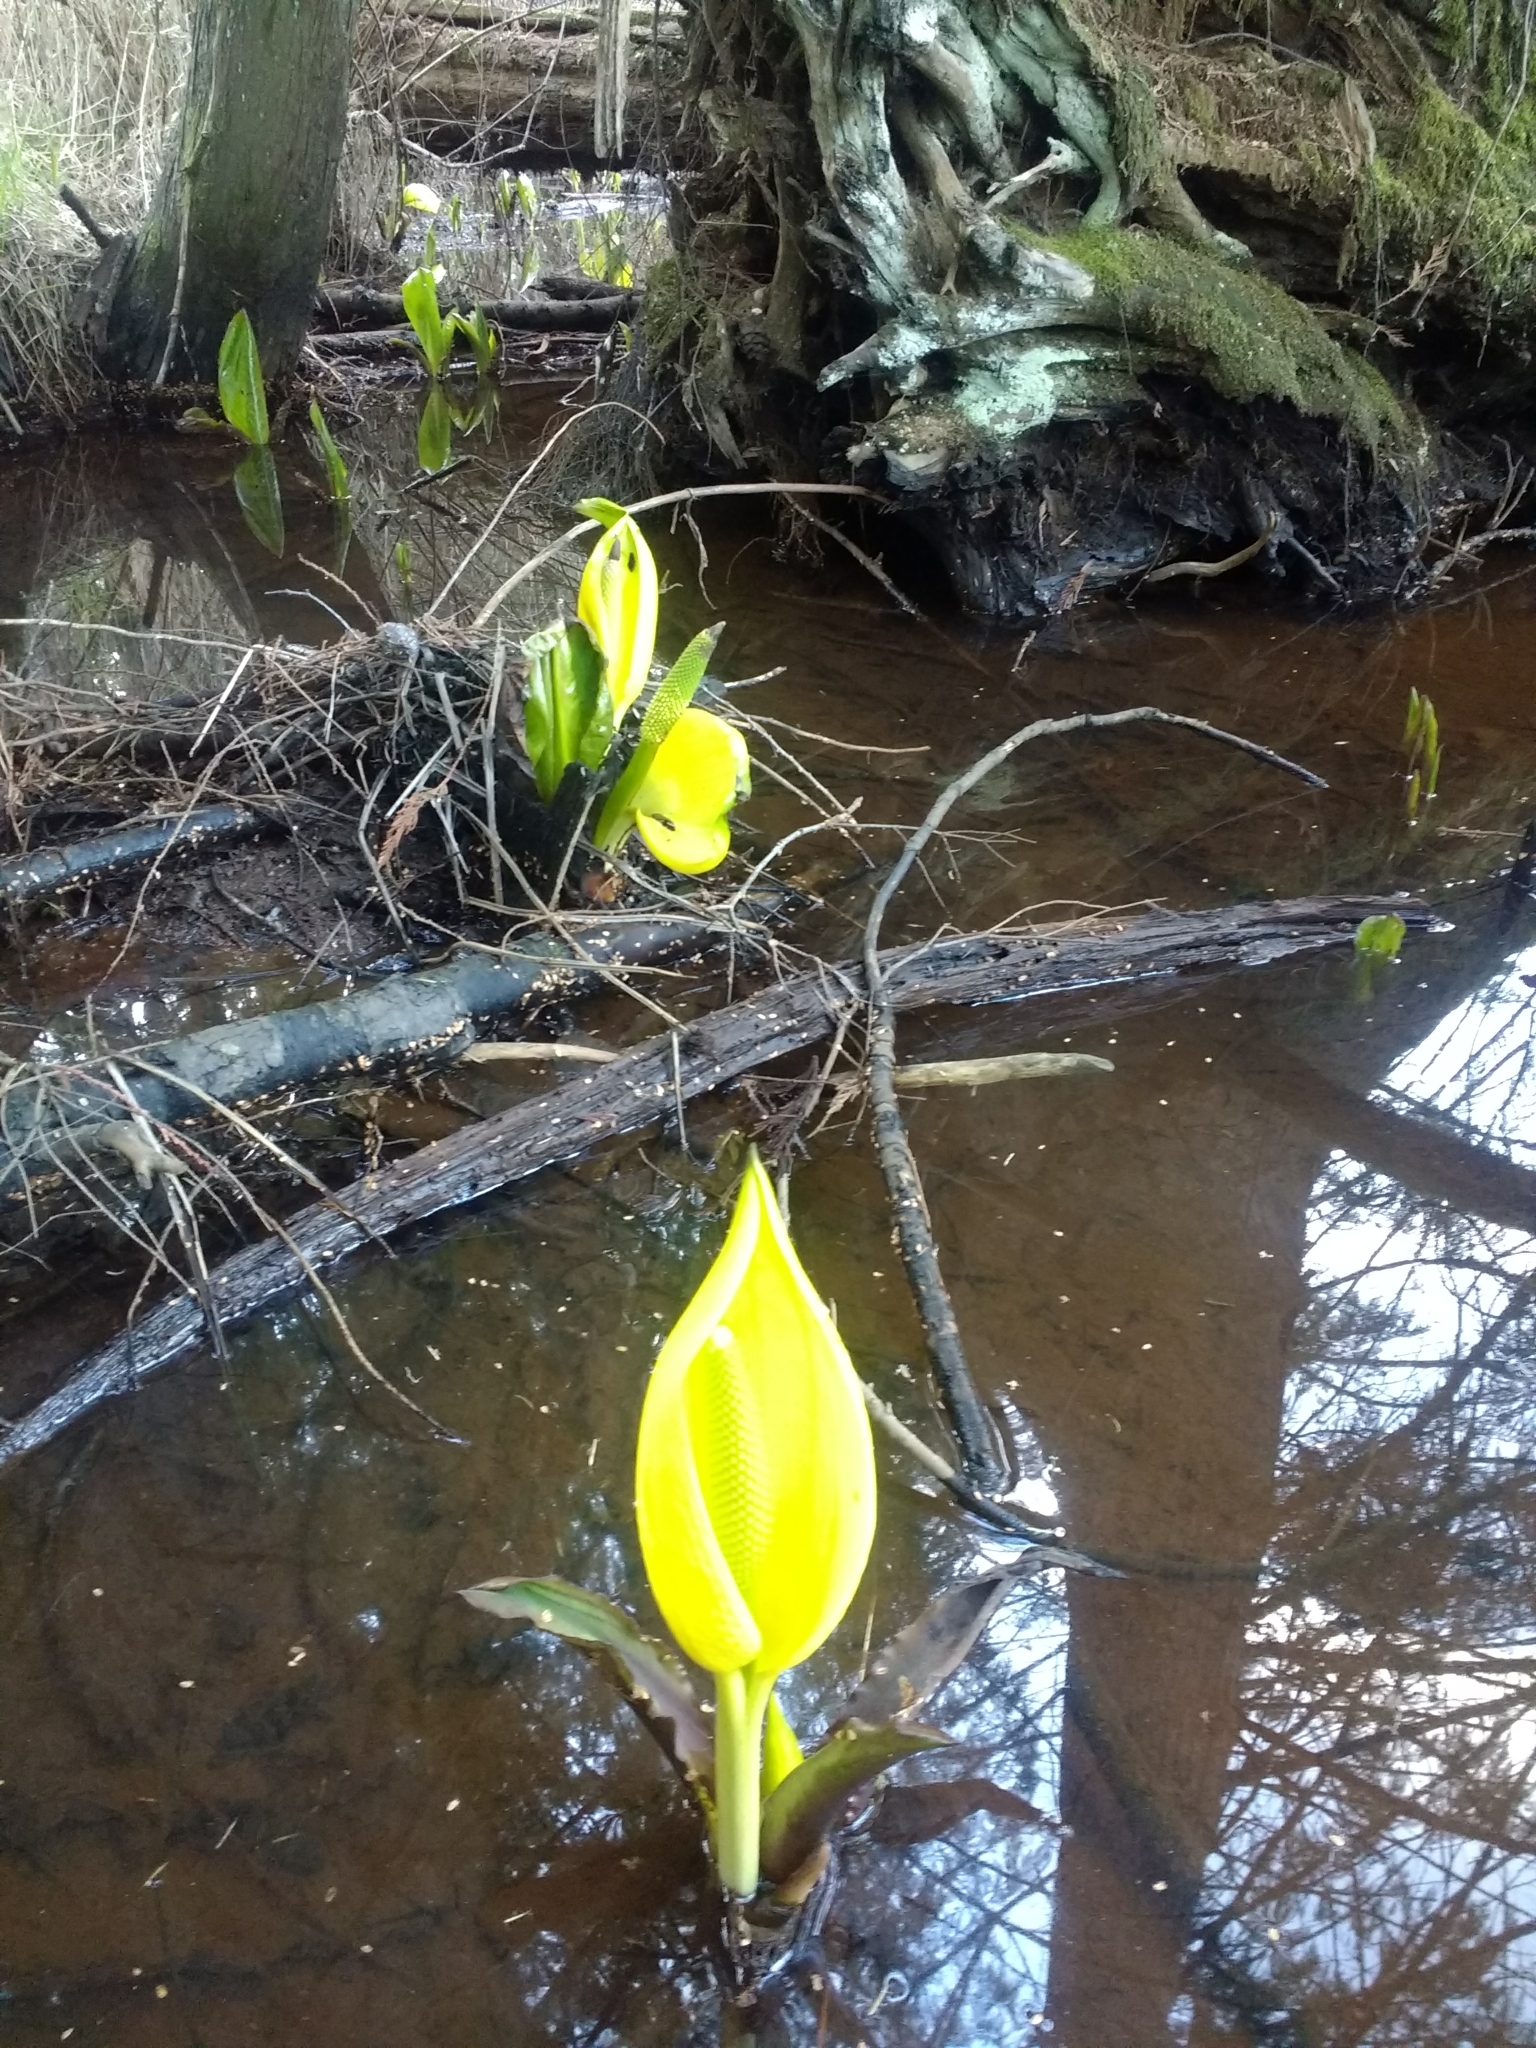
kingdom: Plantae
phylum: Tracheophyta
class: Liliopsida
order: Alismatales
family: Araceae
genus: Lysichiton
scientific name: Lysichiton americanus
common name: American skunk cabbage
